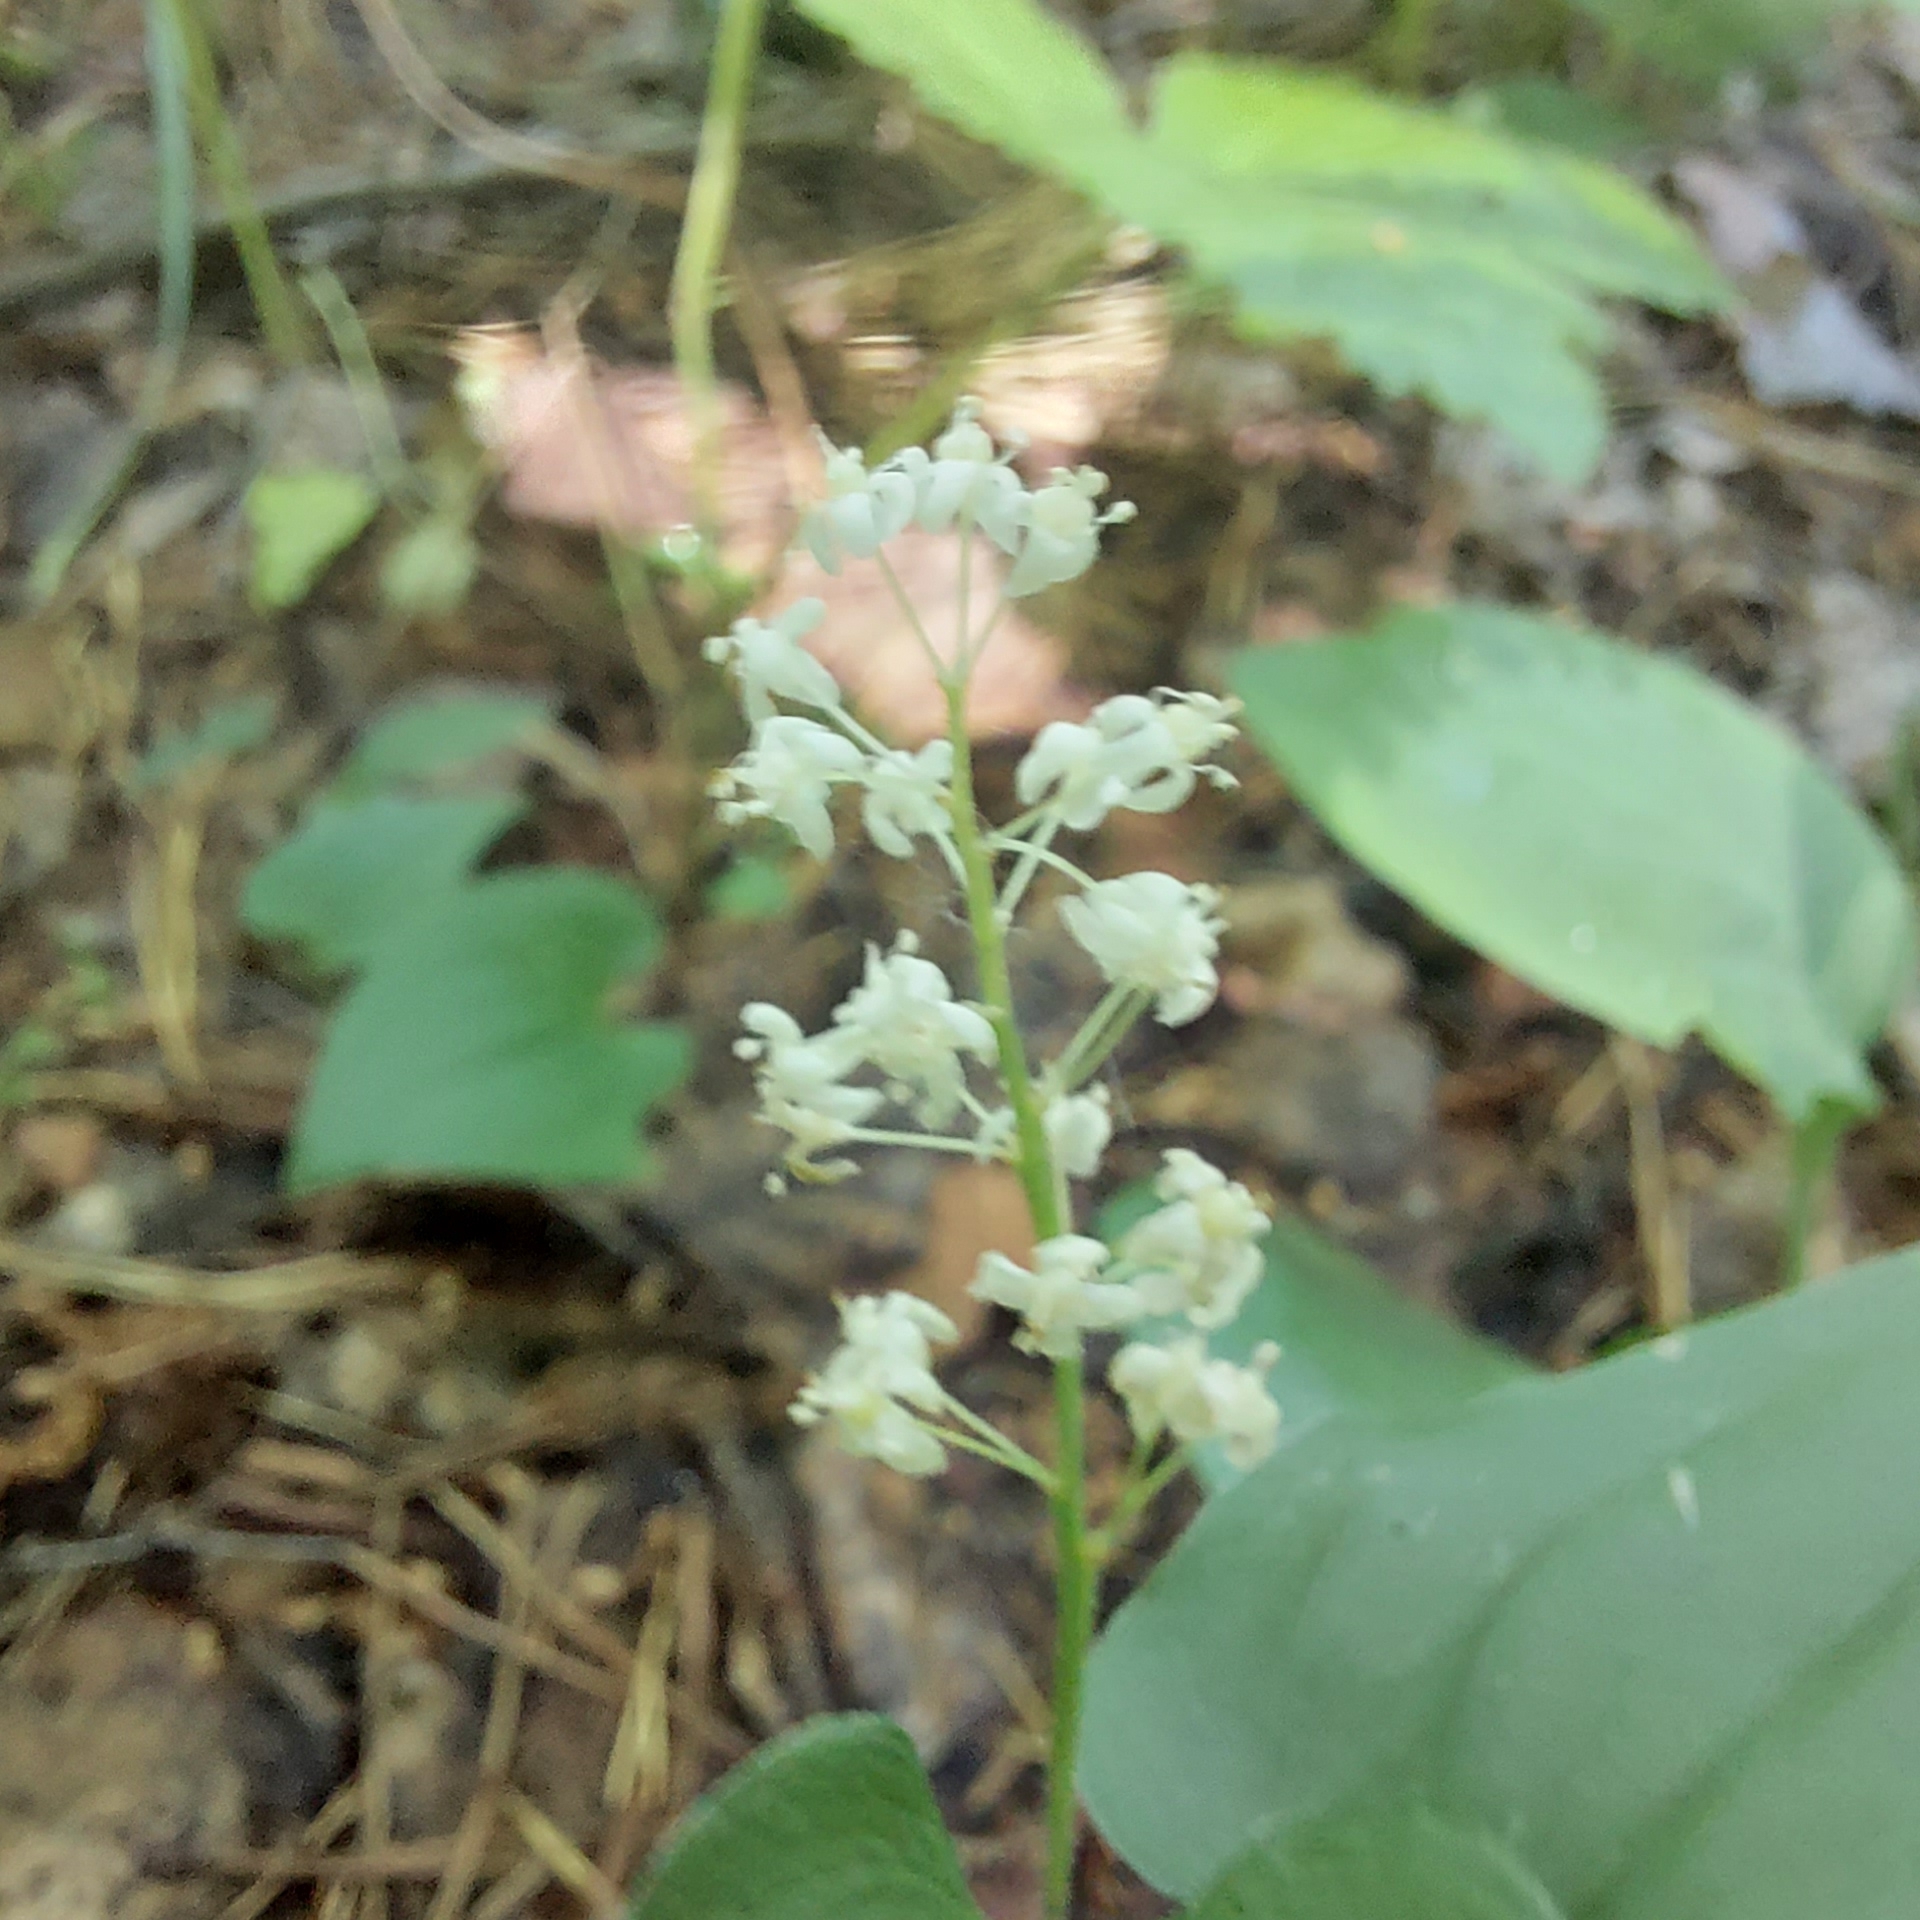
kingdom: Plantae
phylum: Tracheophyta
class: Liliopsida
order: Asparagales
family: Asparagaceae
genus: Maianthemum
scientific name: Maianthemum bifolium
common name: May lily
